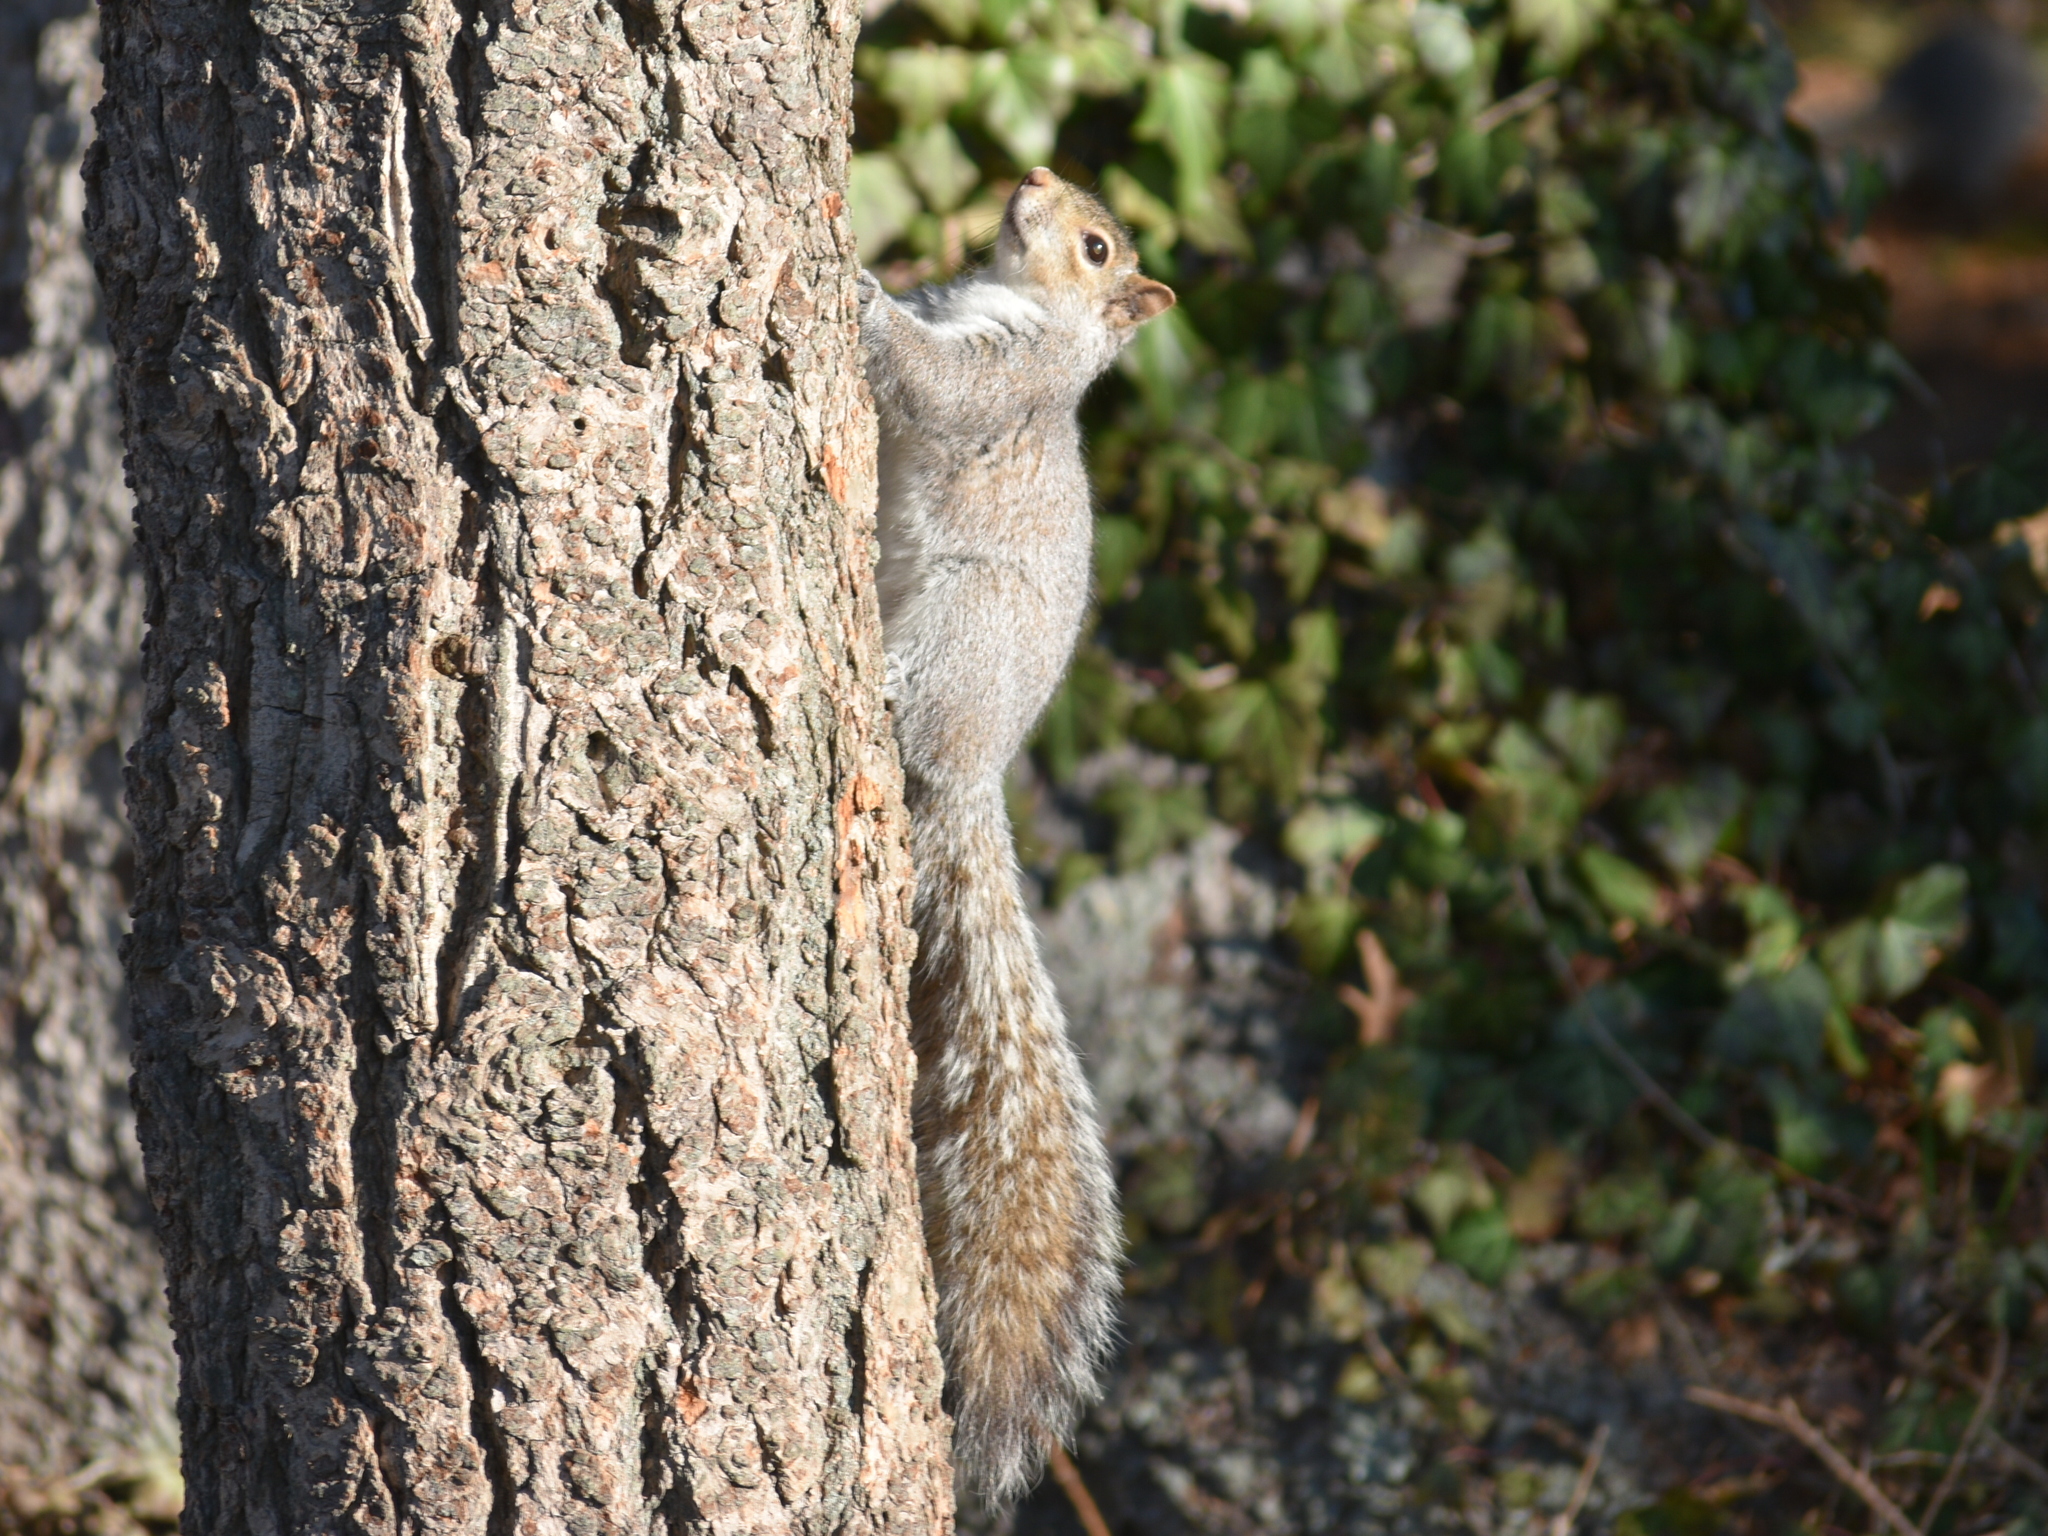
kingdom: Animalia
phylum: Chordata
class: Mammalia
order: Rodentia
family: Sciuridae
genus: Sciurus
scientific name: Sciurus carolinensis
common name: Eastern gray squirrel
